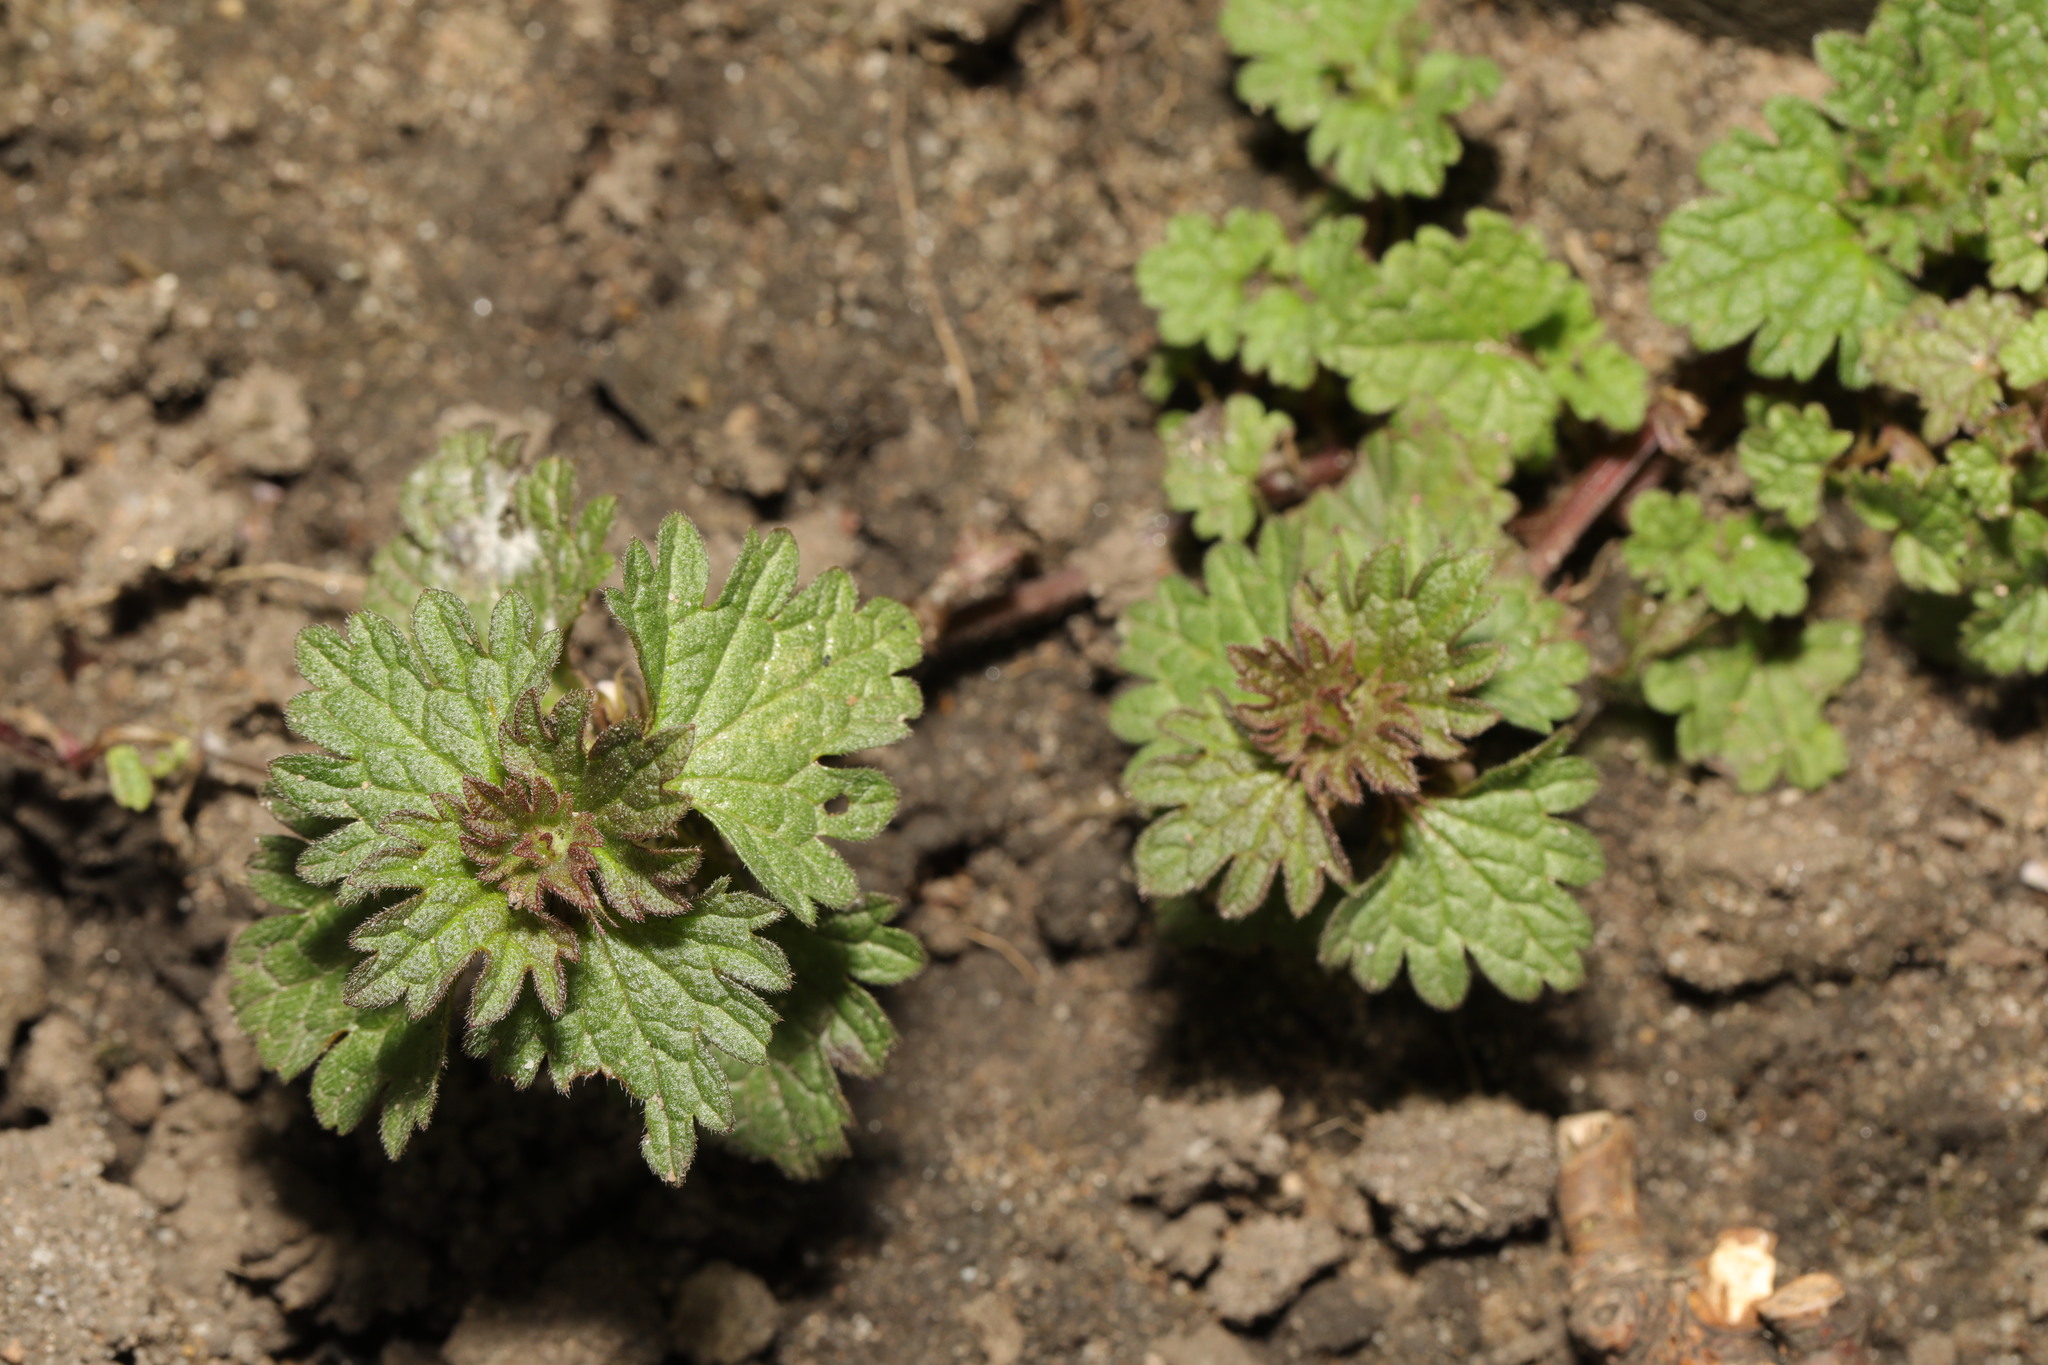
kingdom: Plantae
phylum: Tracheophyta
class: Magnoliopsida
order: Lamiales
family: Lamiaceae
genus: Lamium
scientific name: Lamium hybridum
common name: Cut-leaved dead-nettle
